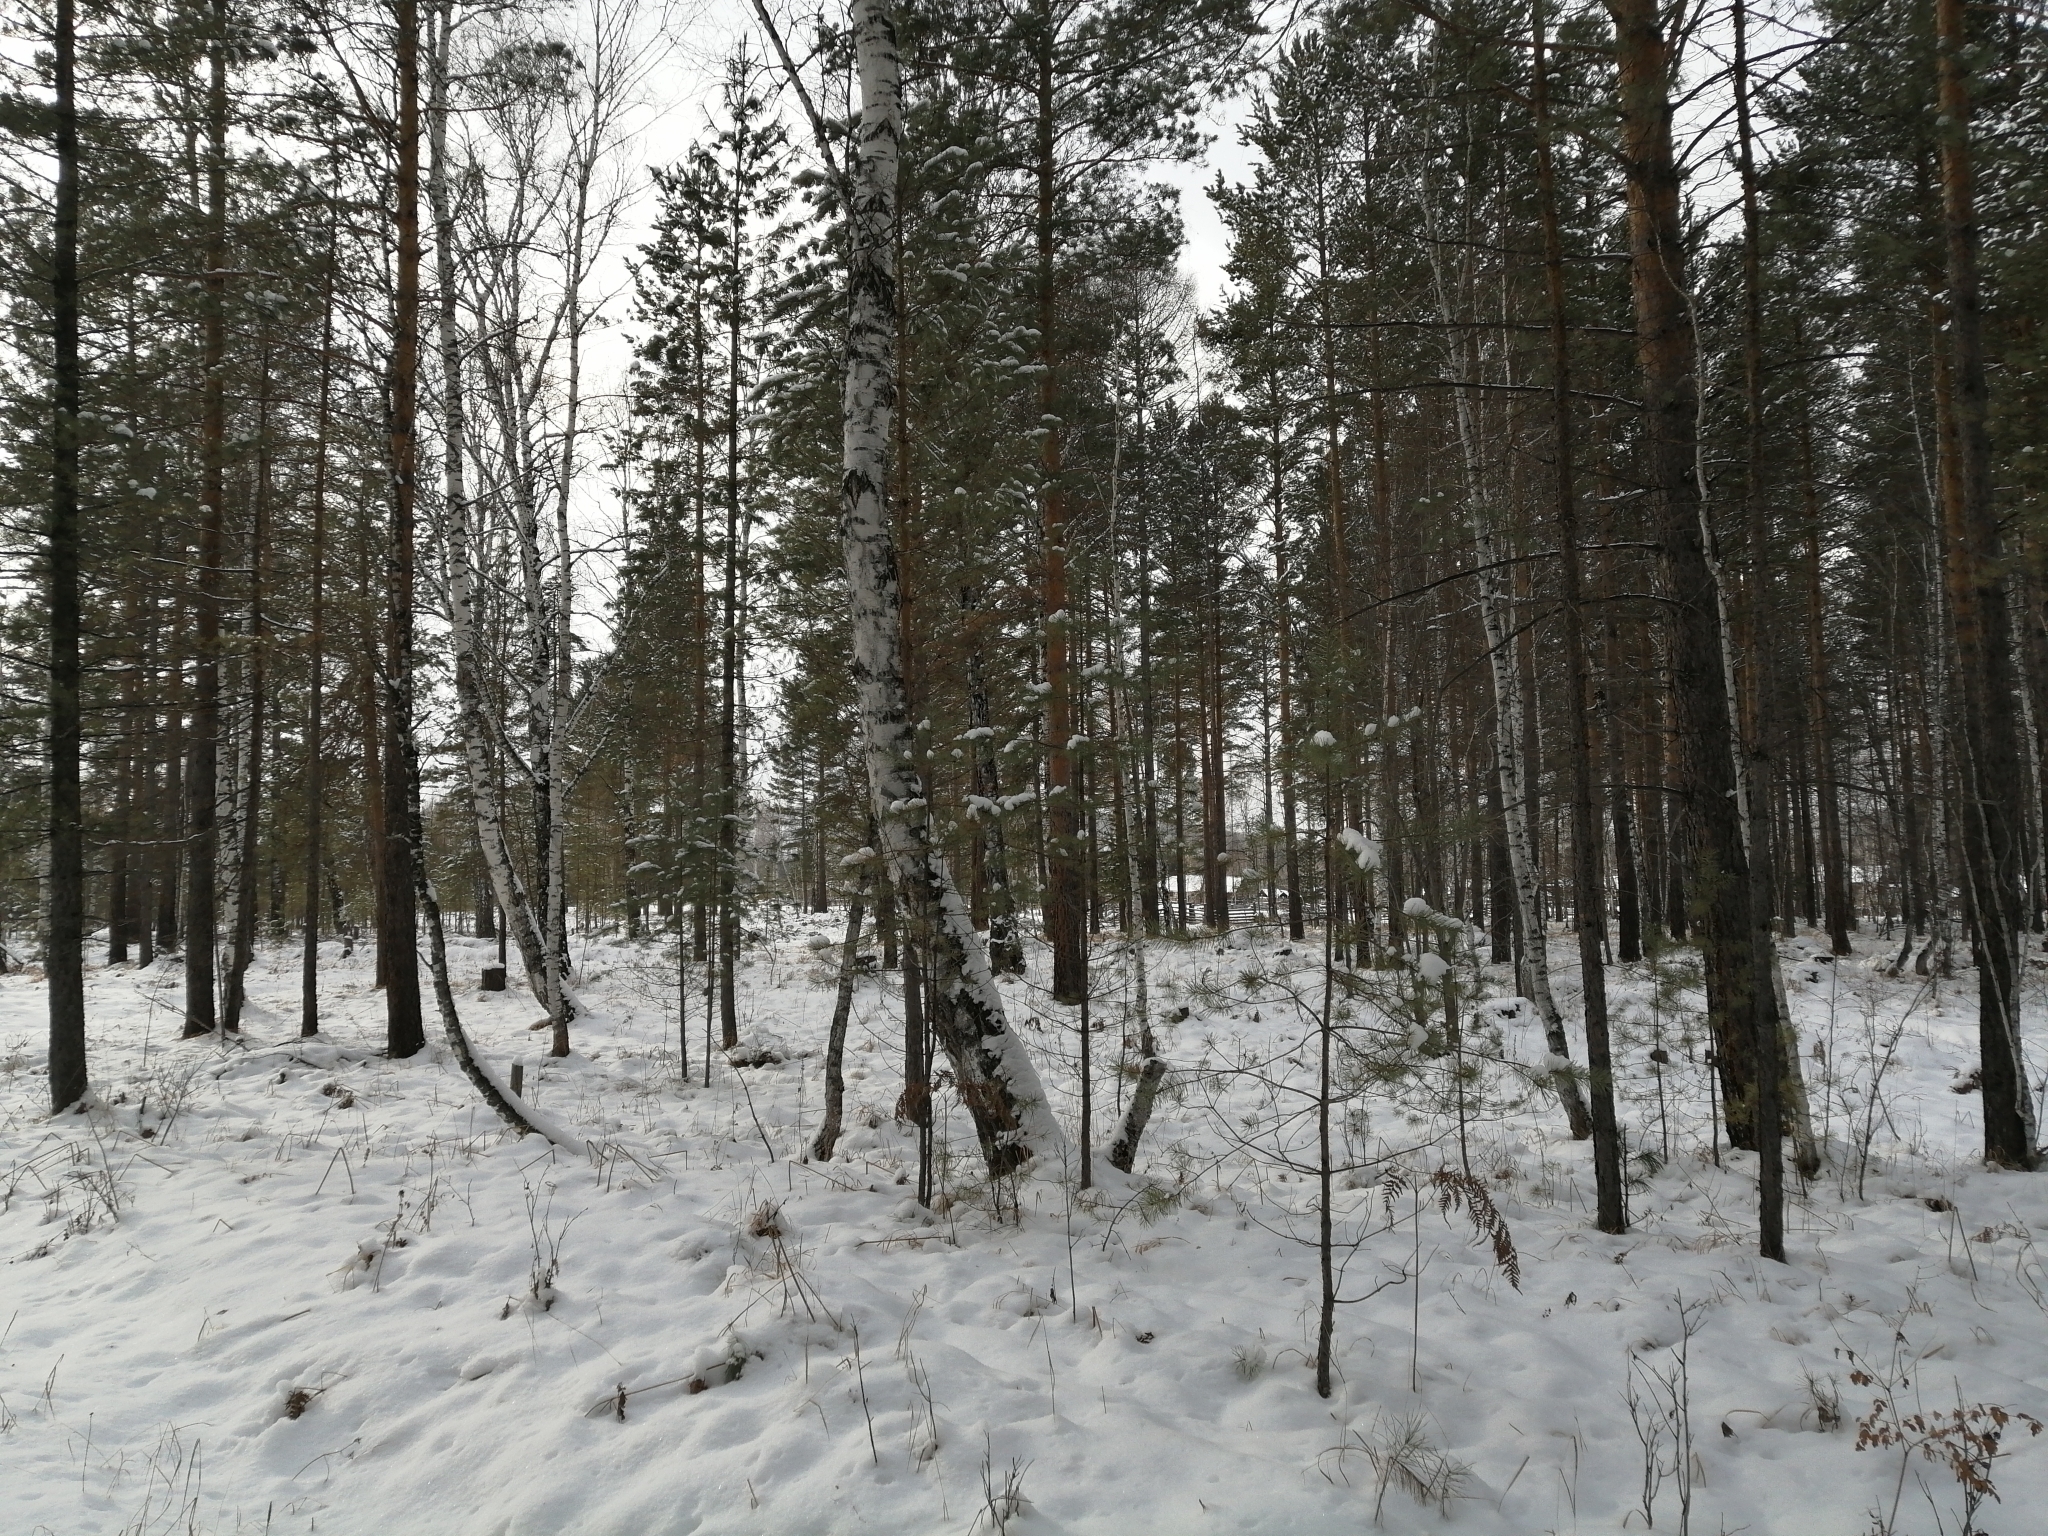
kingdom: Plantae
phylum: Tracheophyta
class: Pinopsida
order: Pinales
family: Pinaceae
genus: Pinus
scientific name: Pinus sylvestris
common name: Scots pine
